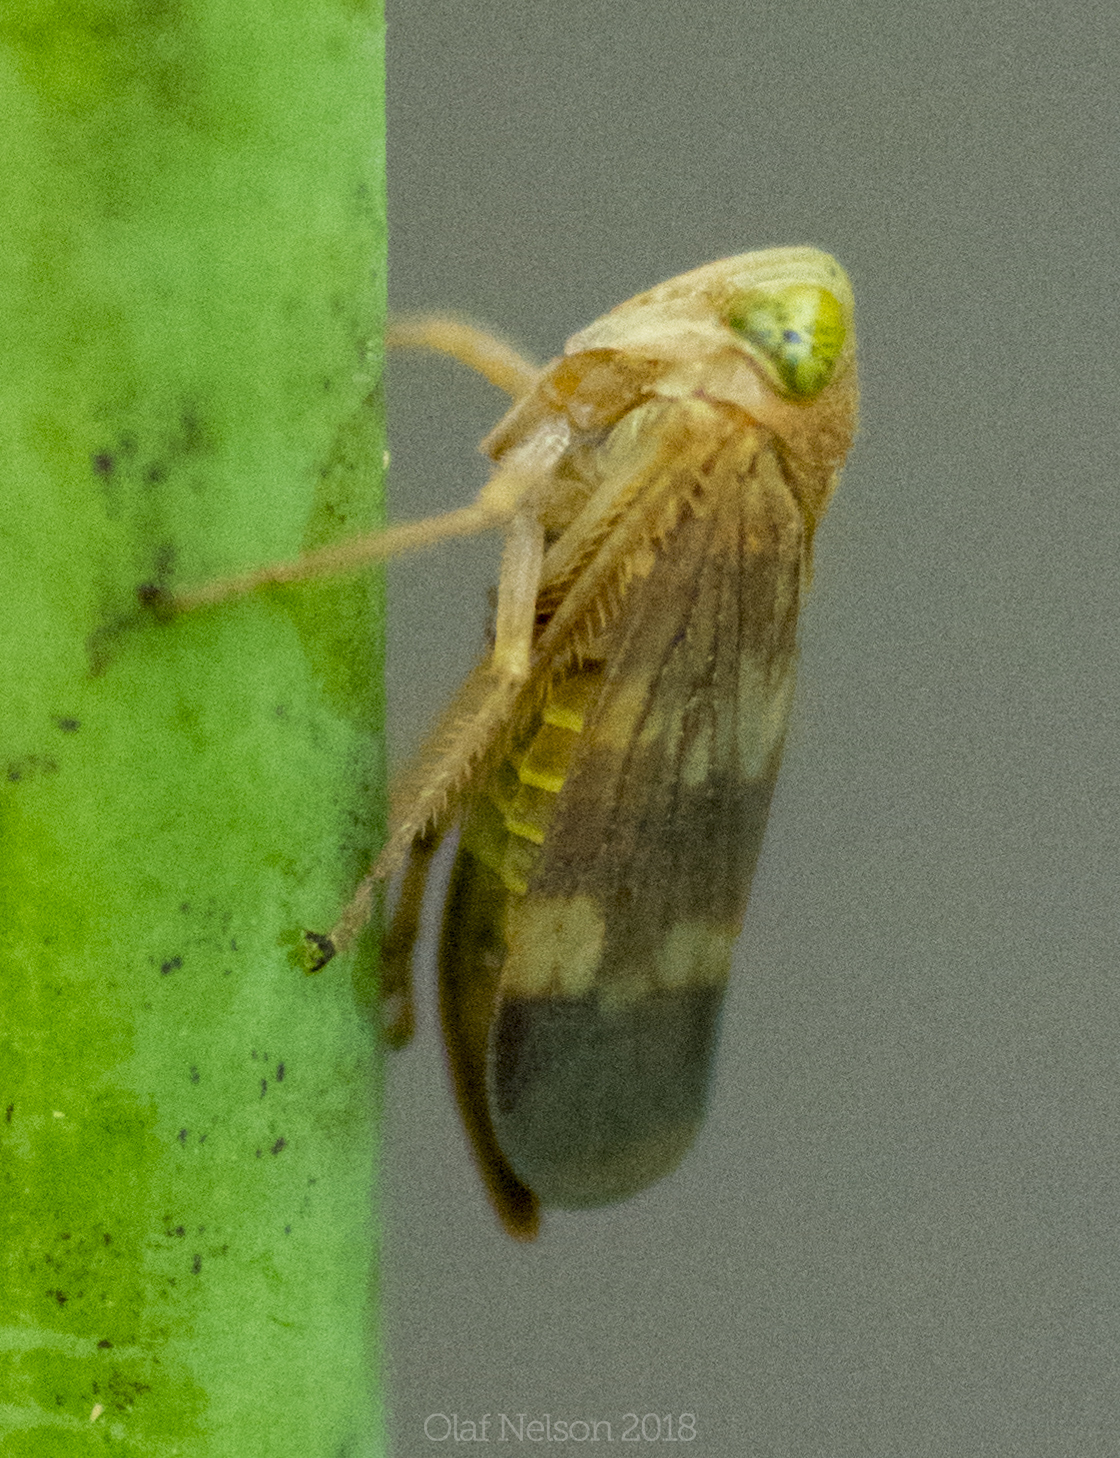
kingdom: Animalia
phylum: Arthropoda
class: Insecta
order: Hemiptera
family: Cicadellidae
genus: Jikradia
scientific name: Jikradia olitoria
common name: Coppery leafhopper
